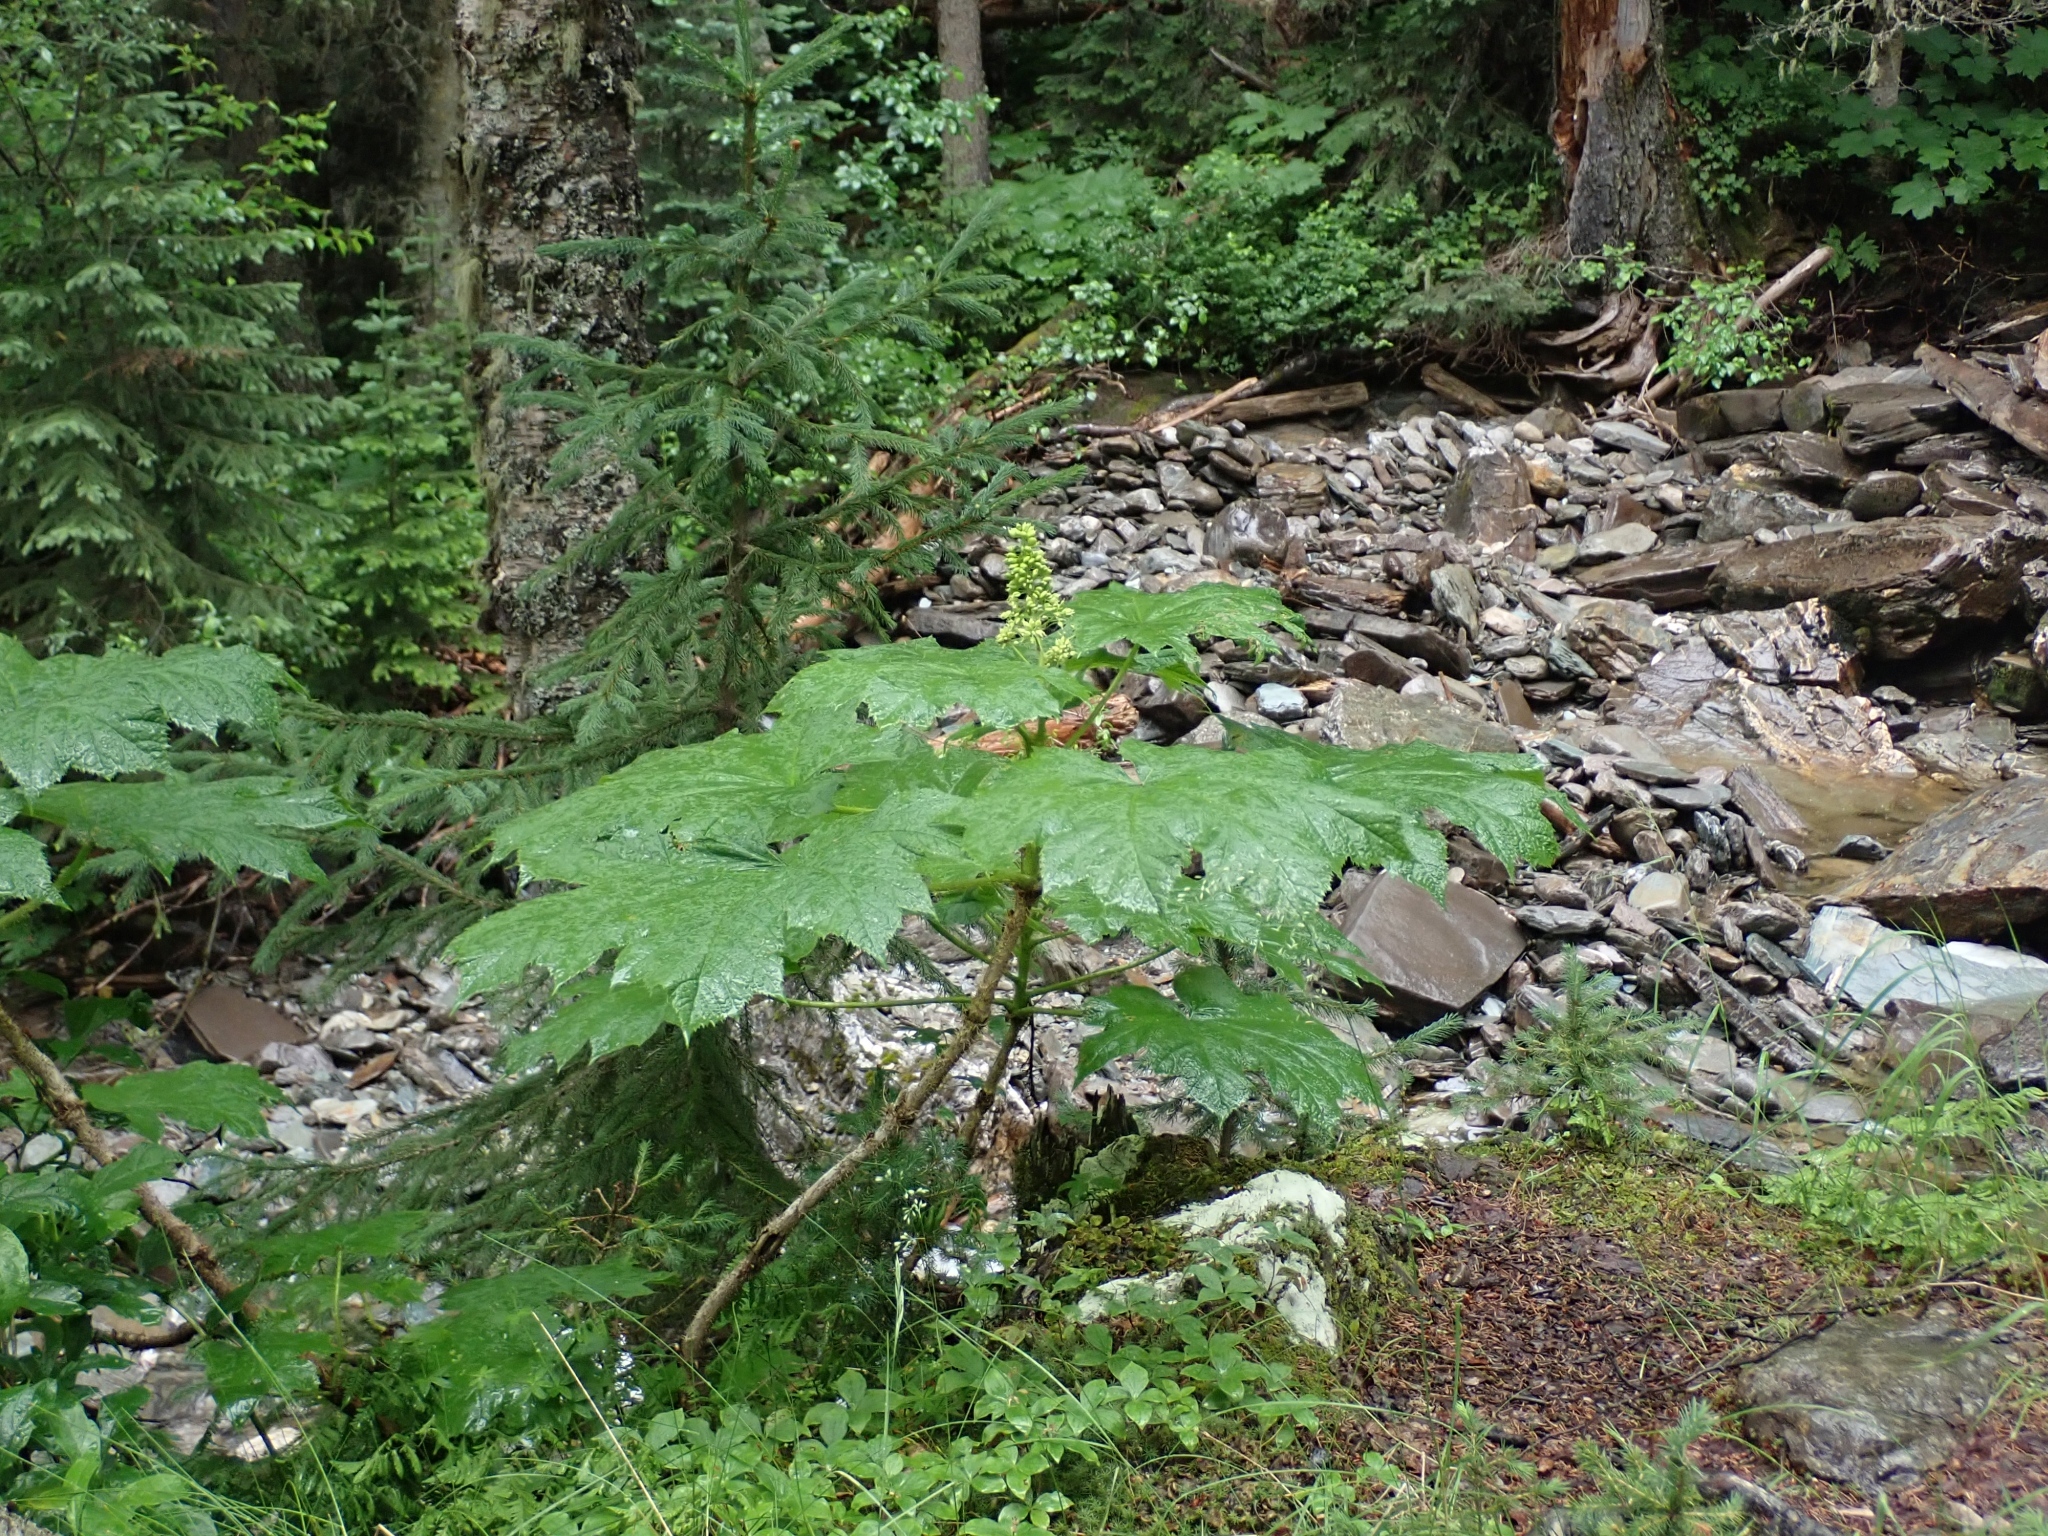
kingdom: Plantae
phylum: Tracheophyta
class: Magnoliopsida
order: Apiales
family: Araliaceae
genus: Oplopanax
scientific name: Oplopanax horridus
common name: Devil's walking-stick
